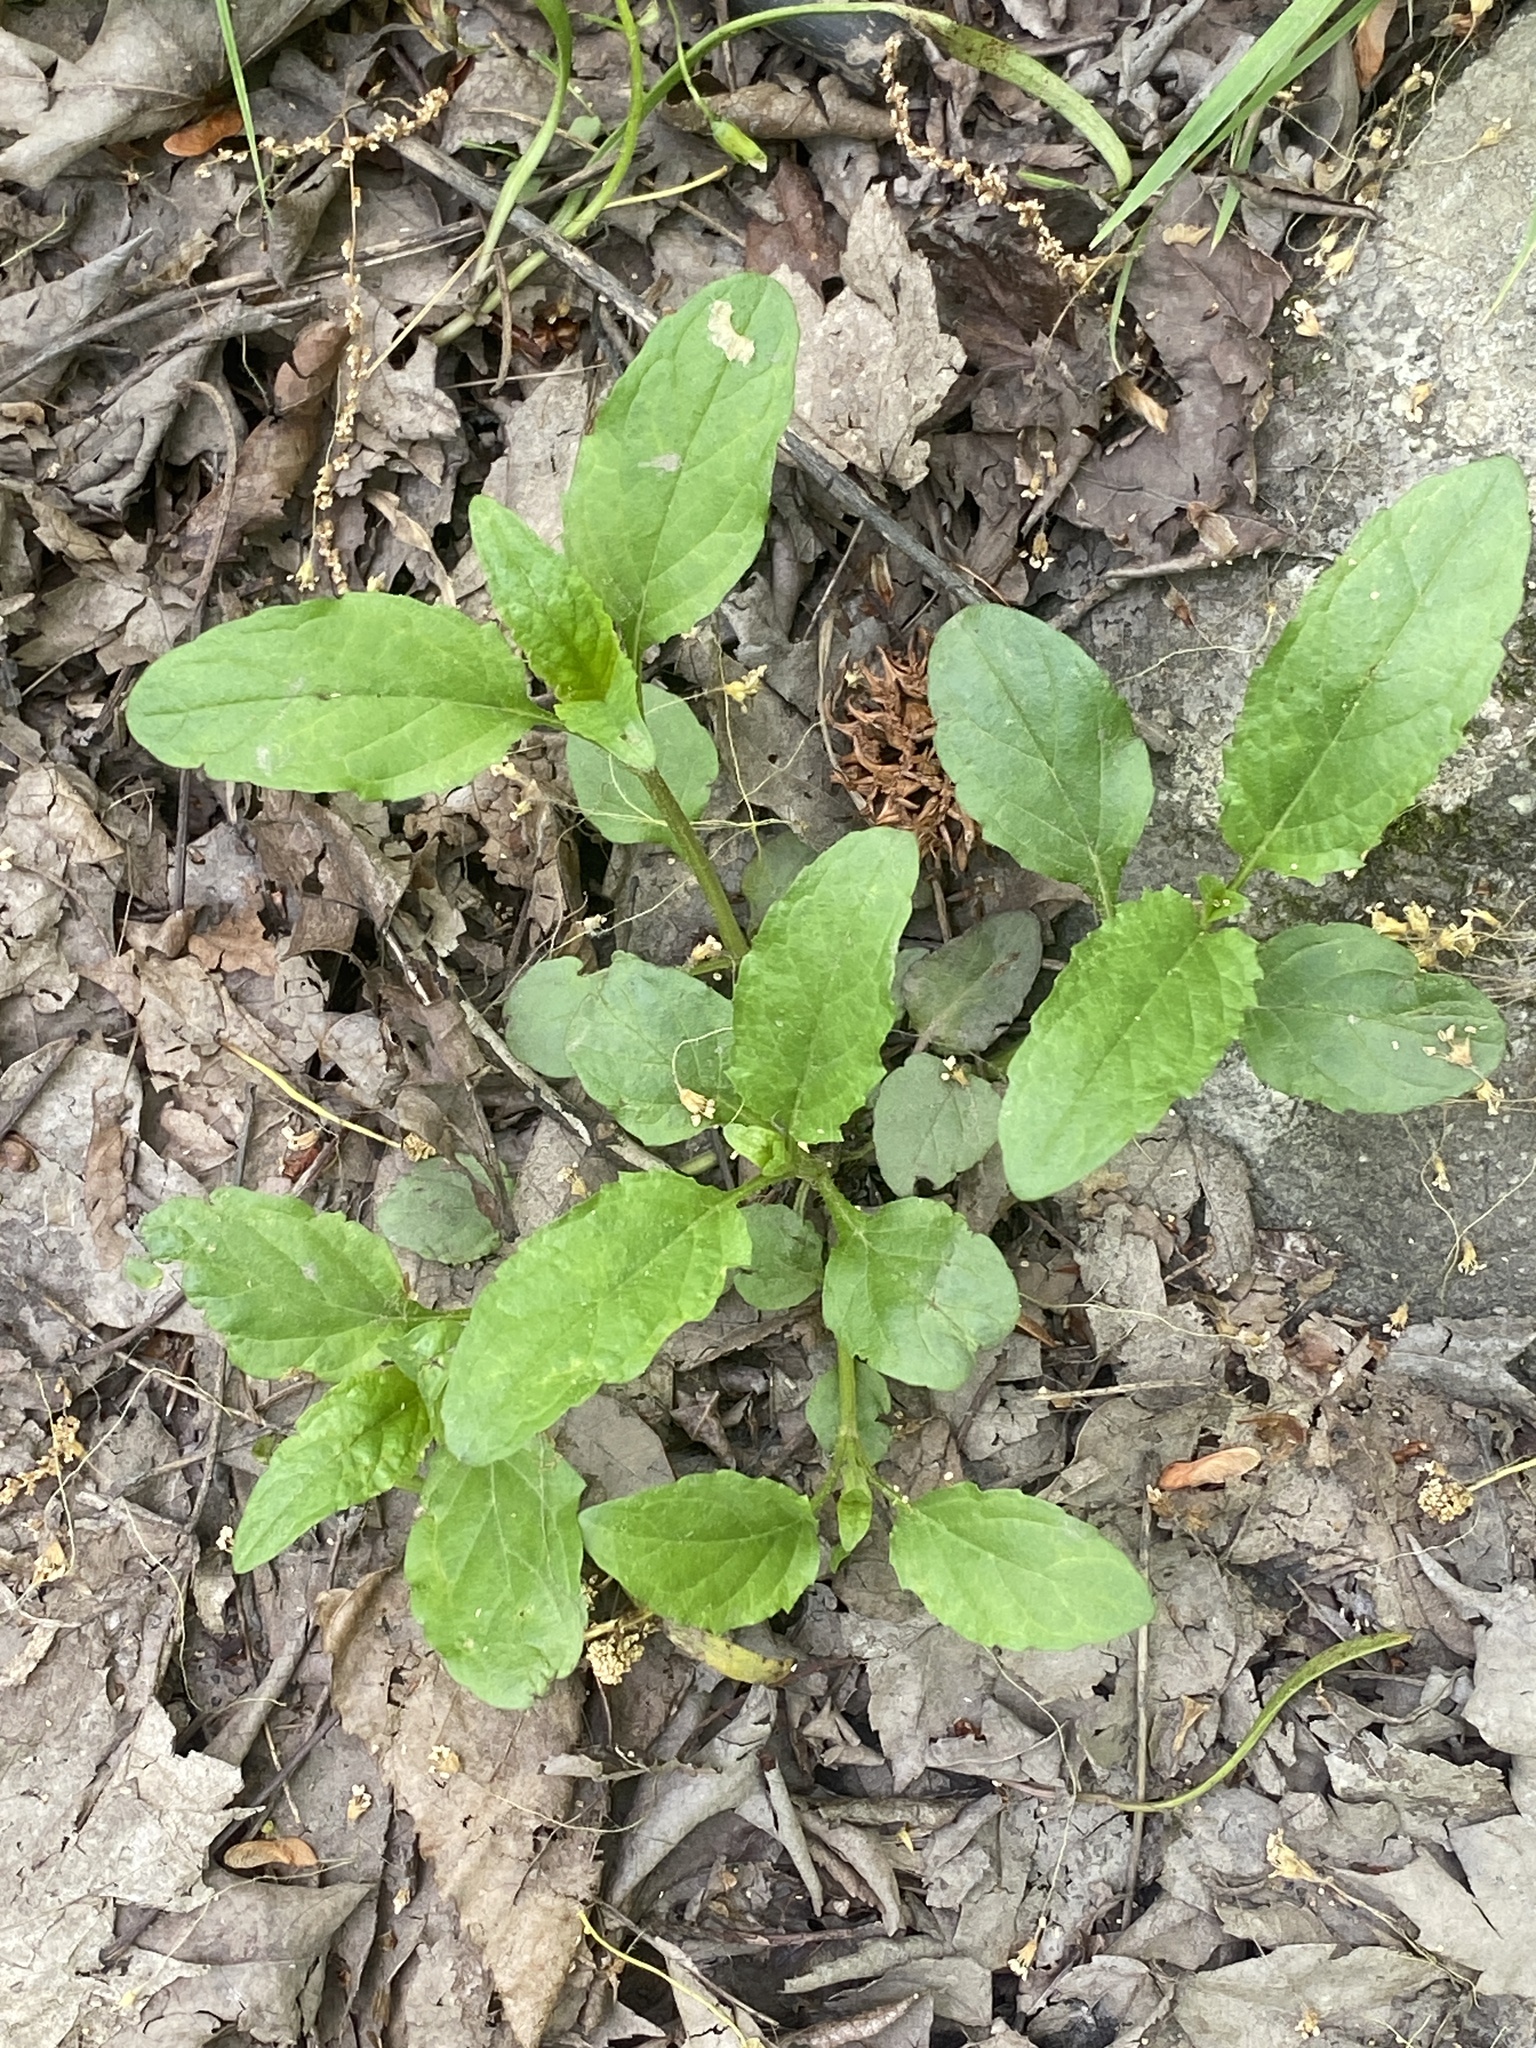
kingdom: Plantae
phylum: Tracheophyta
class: Magnoliopsida
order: Lamiales
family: Lamiaceae
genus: Prunella
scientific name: Prunella vulgaris
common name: Heal-all
